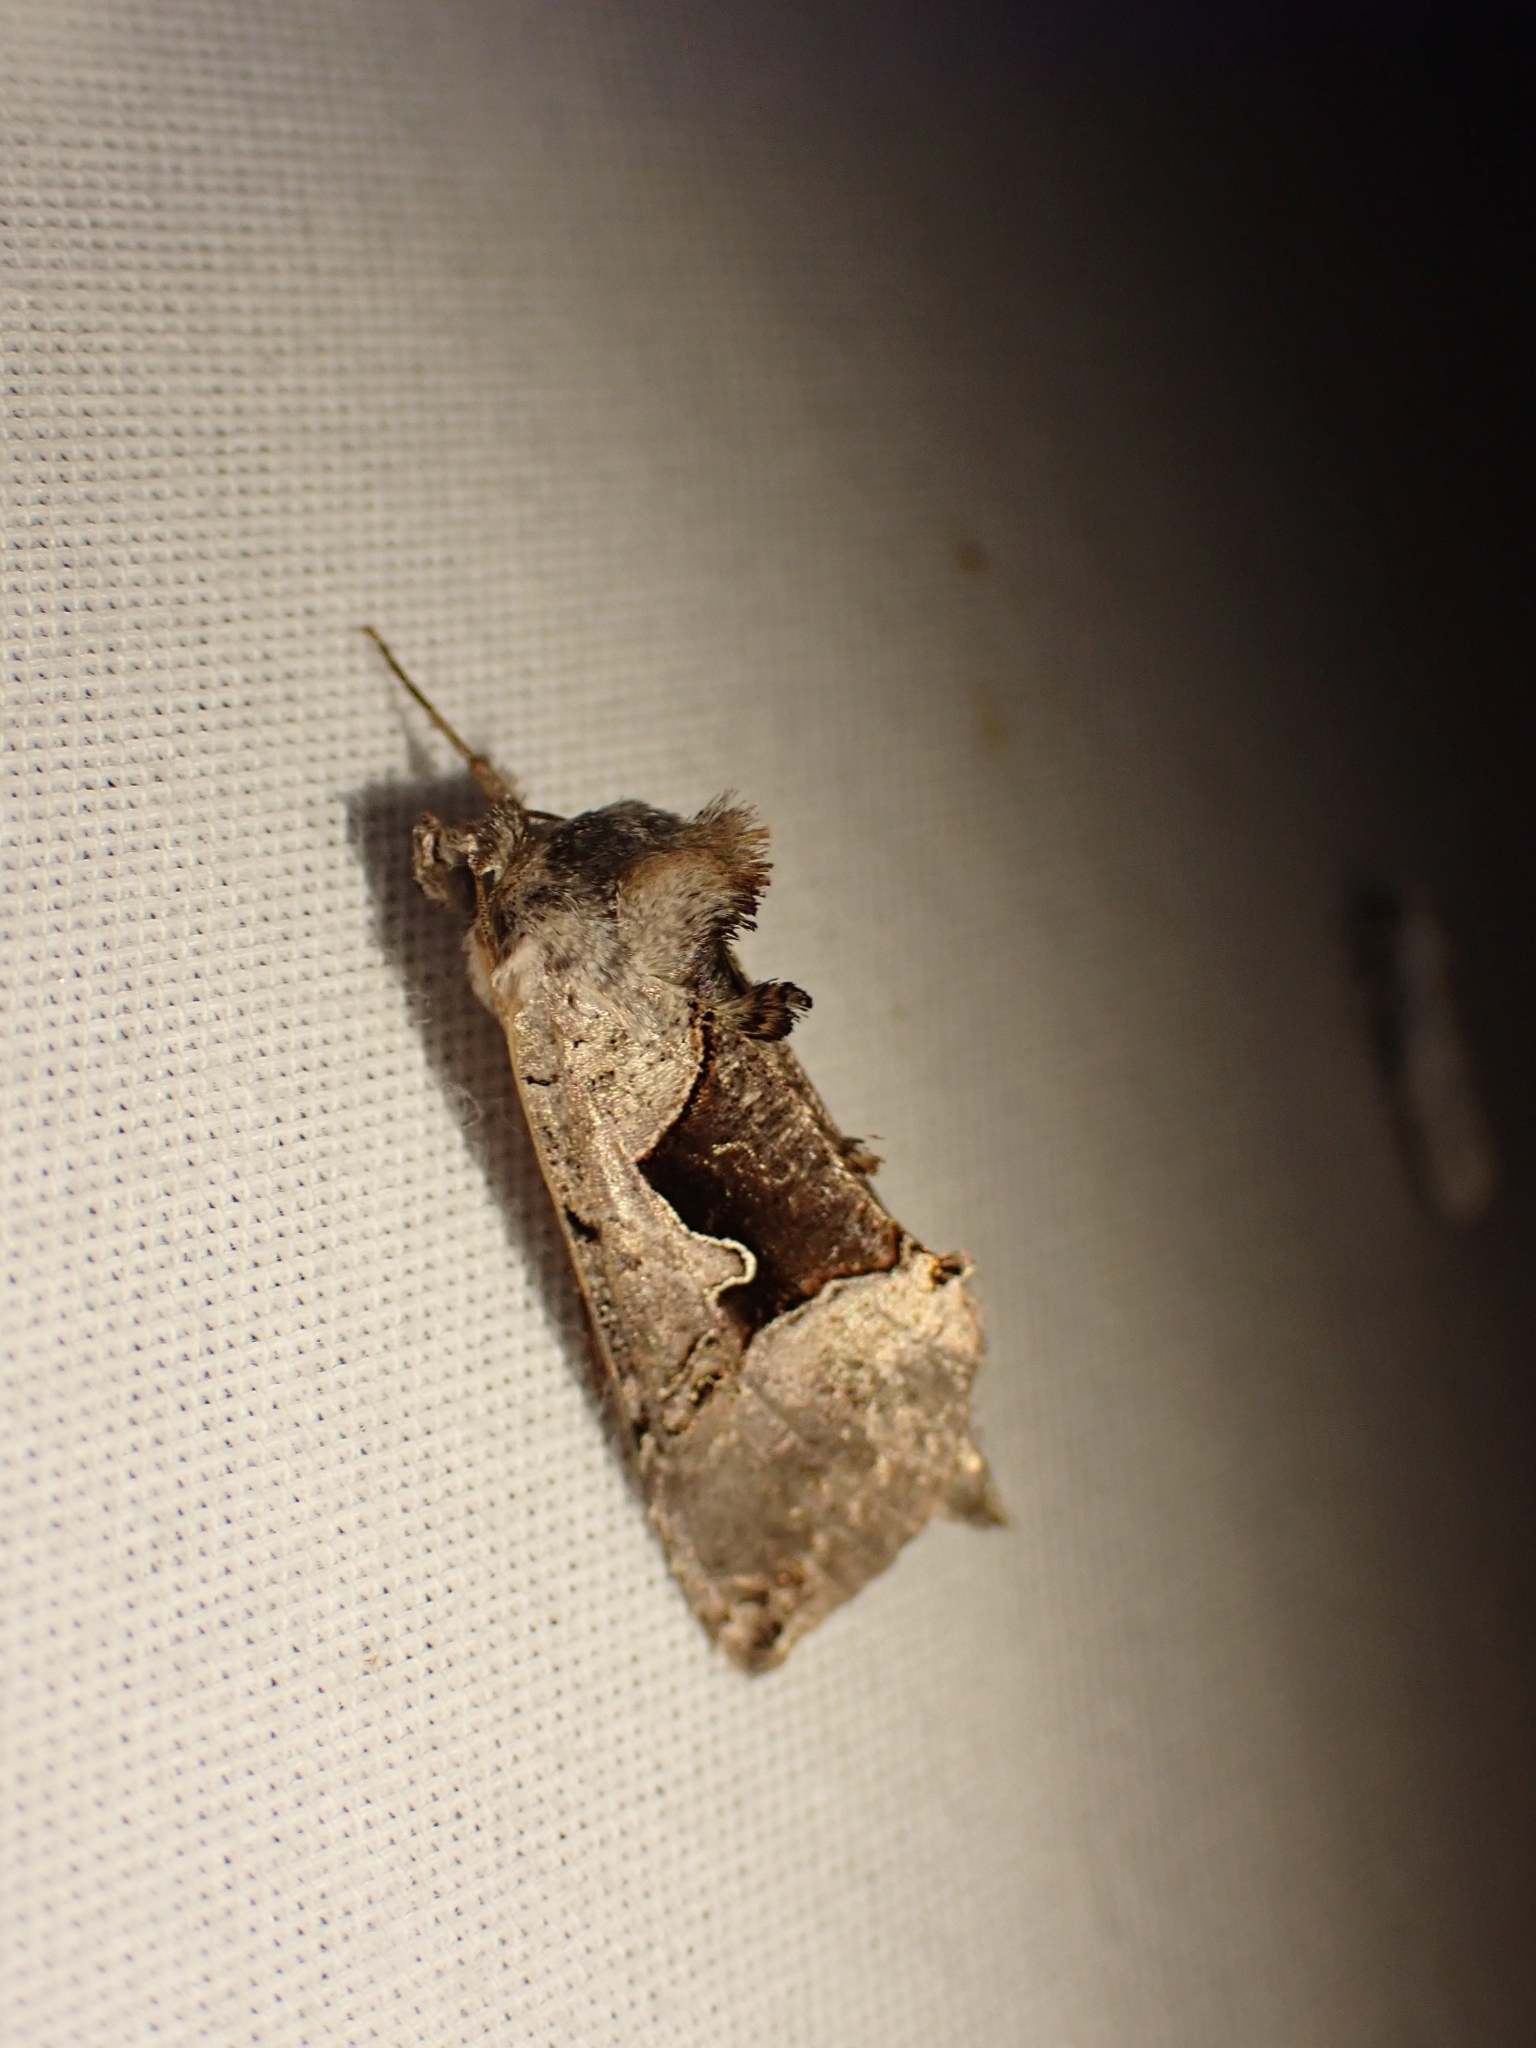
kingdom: Animalia
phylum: Arthropoda
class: Insecta
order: Lepidoptera
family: Noctuidae
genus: Autographa
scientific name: Autographa ampla
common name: Large looper moth
